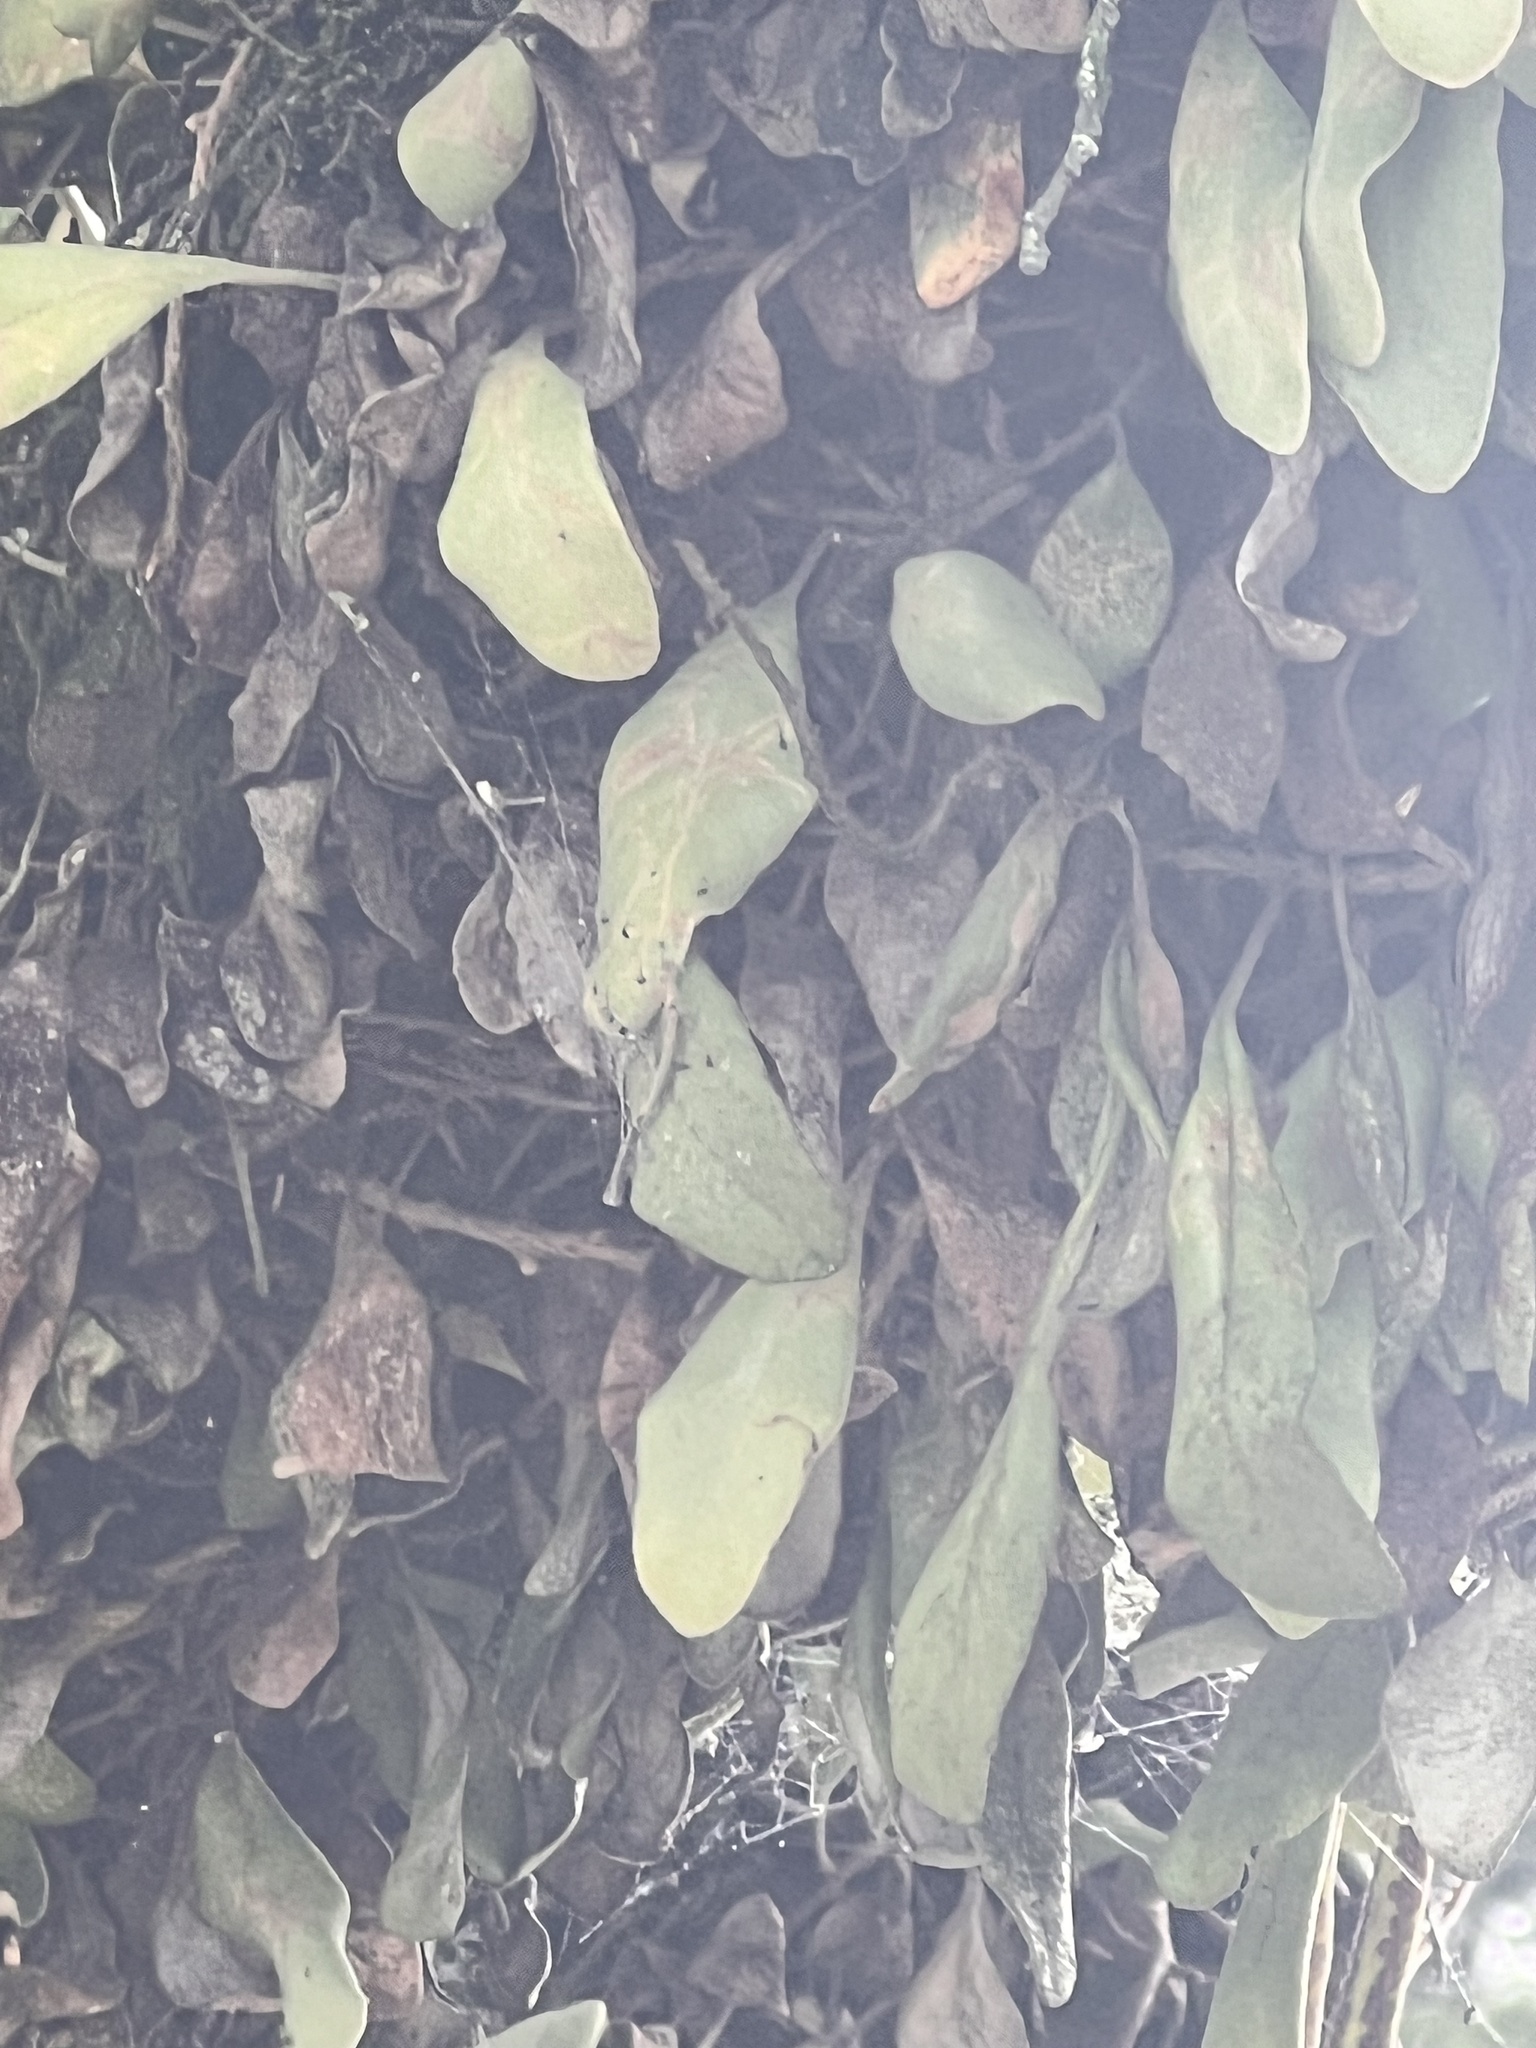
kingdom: Plantae
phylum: Tracheophyta
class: Polypodiopsida
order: Polypodiales
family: Polypodiaceae
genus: Pyrrosia
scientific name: Pyrrosia eleagnifolia
